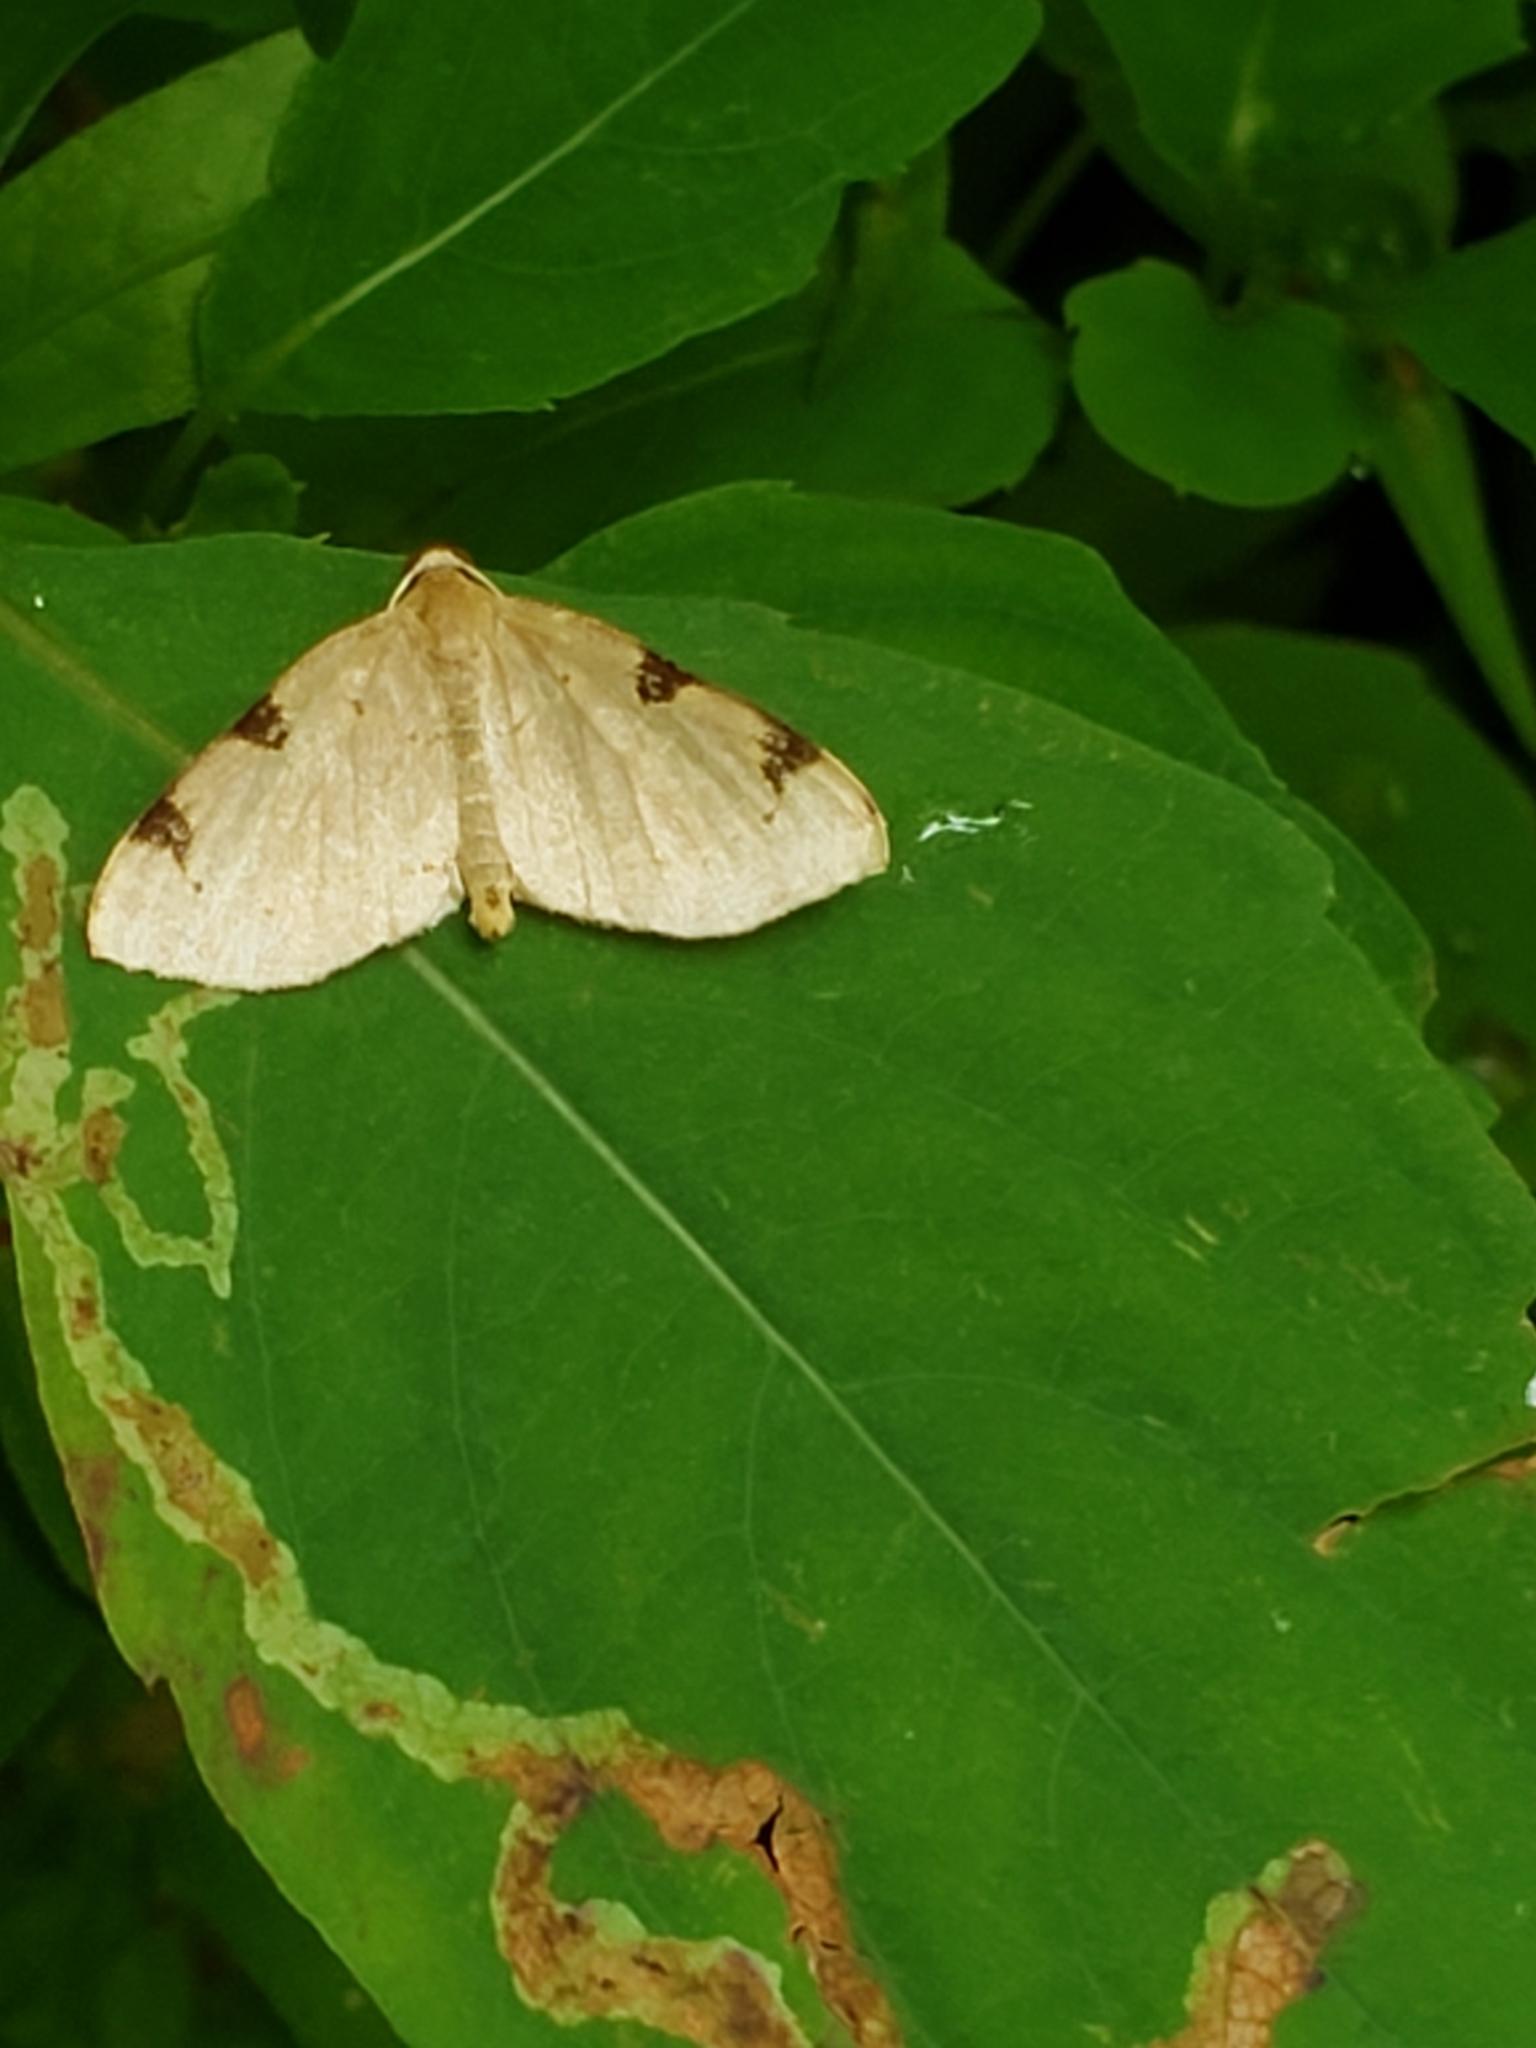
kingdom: Animalia
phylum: Arthropoda
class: Insecta
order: Lepidoptera
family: Geometridae
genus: Heterophleps
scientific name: Heterophleps triguttaria
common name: Three-spotted fillip
